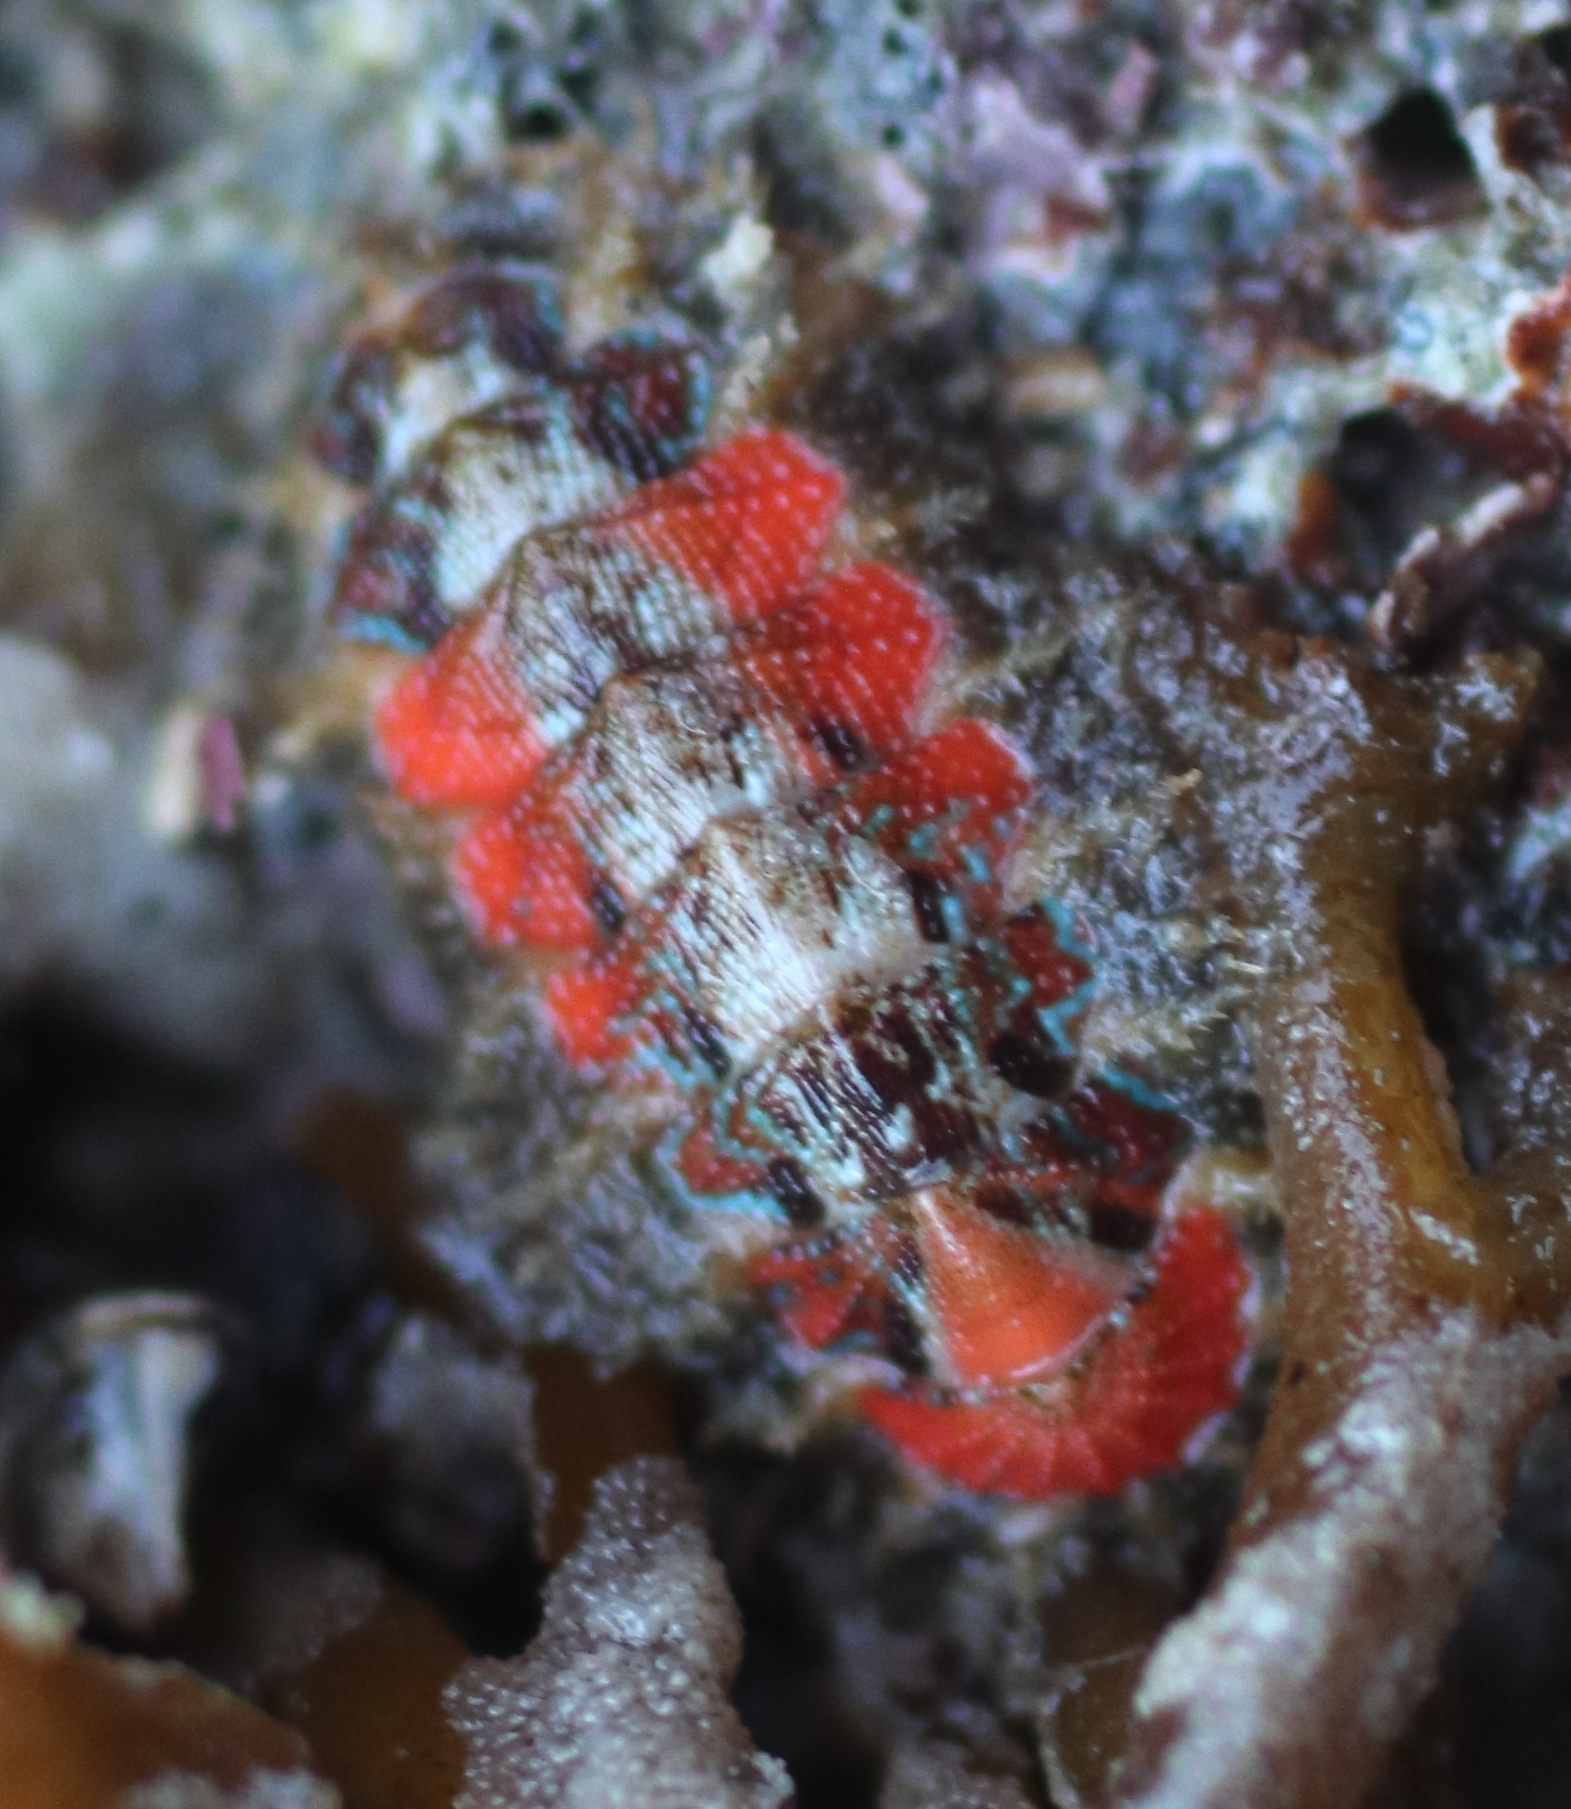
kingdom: Animalia
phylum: Mollusca
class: Polyplacophora
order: Chitonida
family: Mopaliidae
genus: Mopalia
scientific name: Mopalia spectabilis
